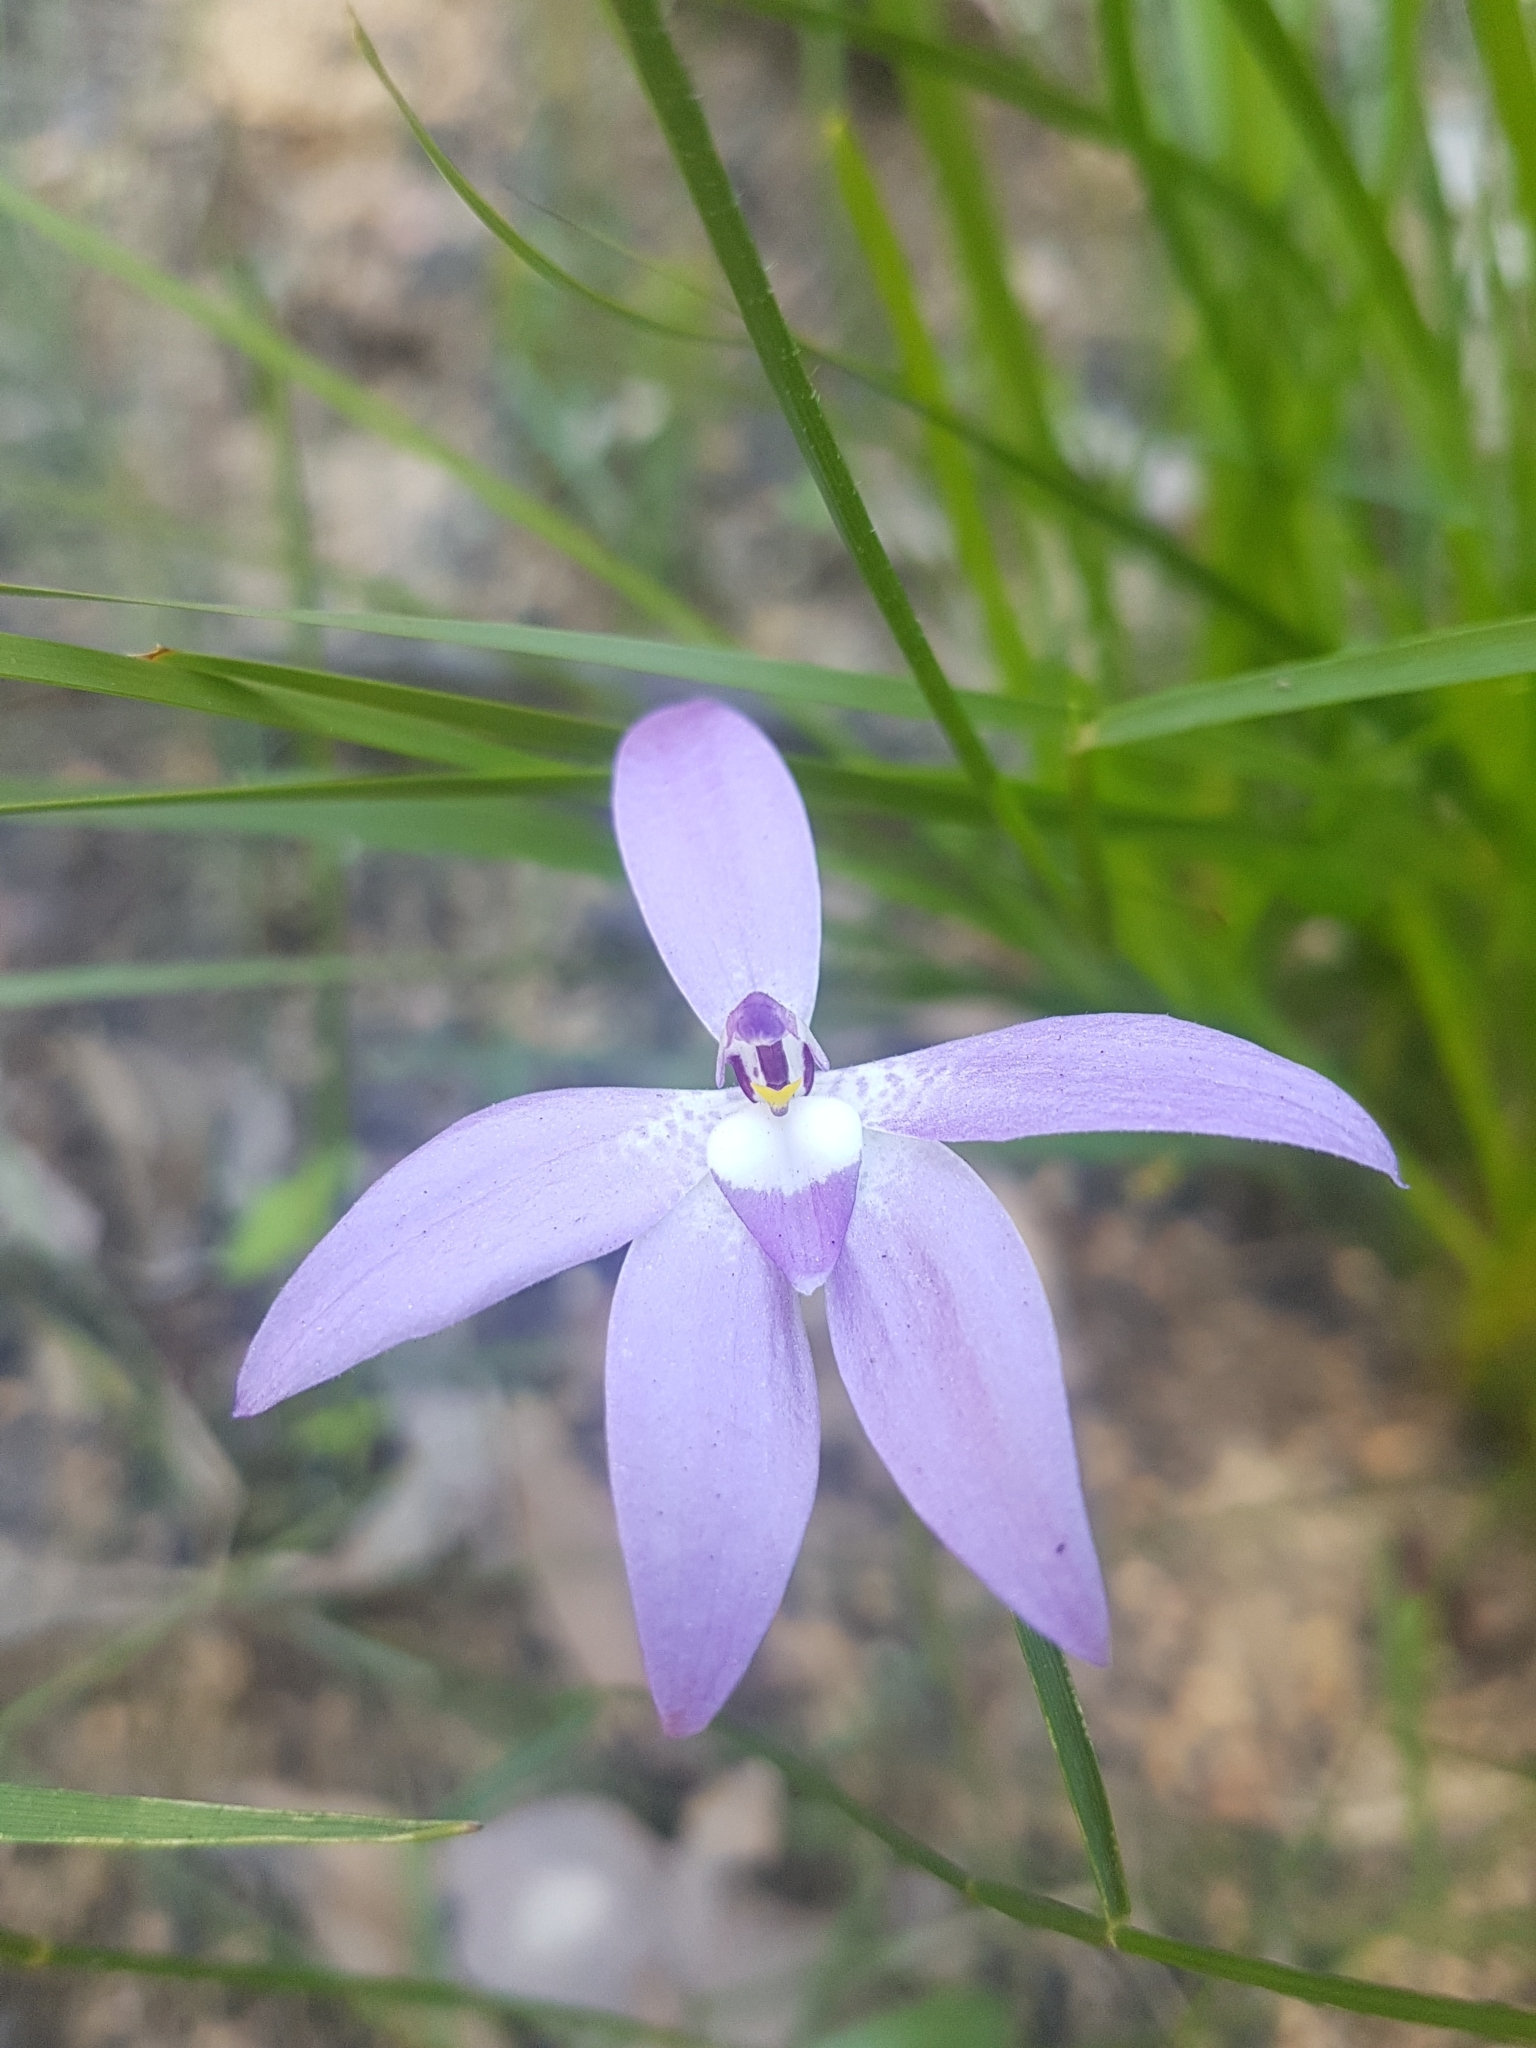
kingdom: Plantae
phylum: Tracheophyta
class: Liliopsida
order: Asparagales
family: Orchidaceae
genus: Caladenia
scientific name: Caladenia major
